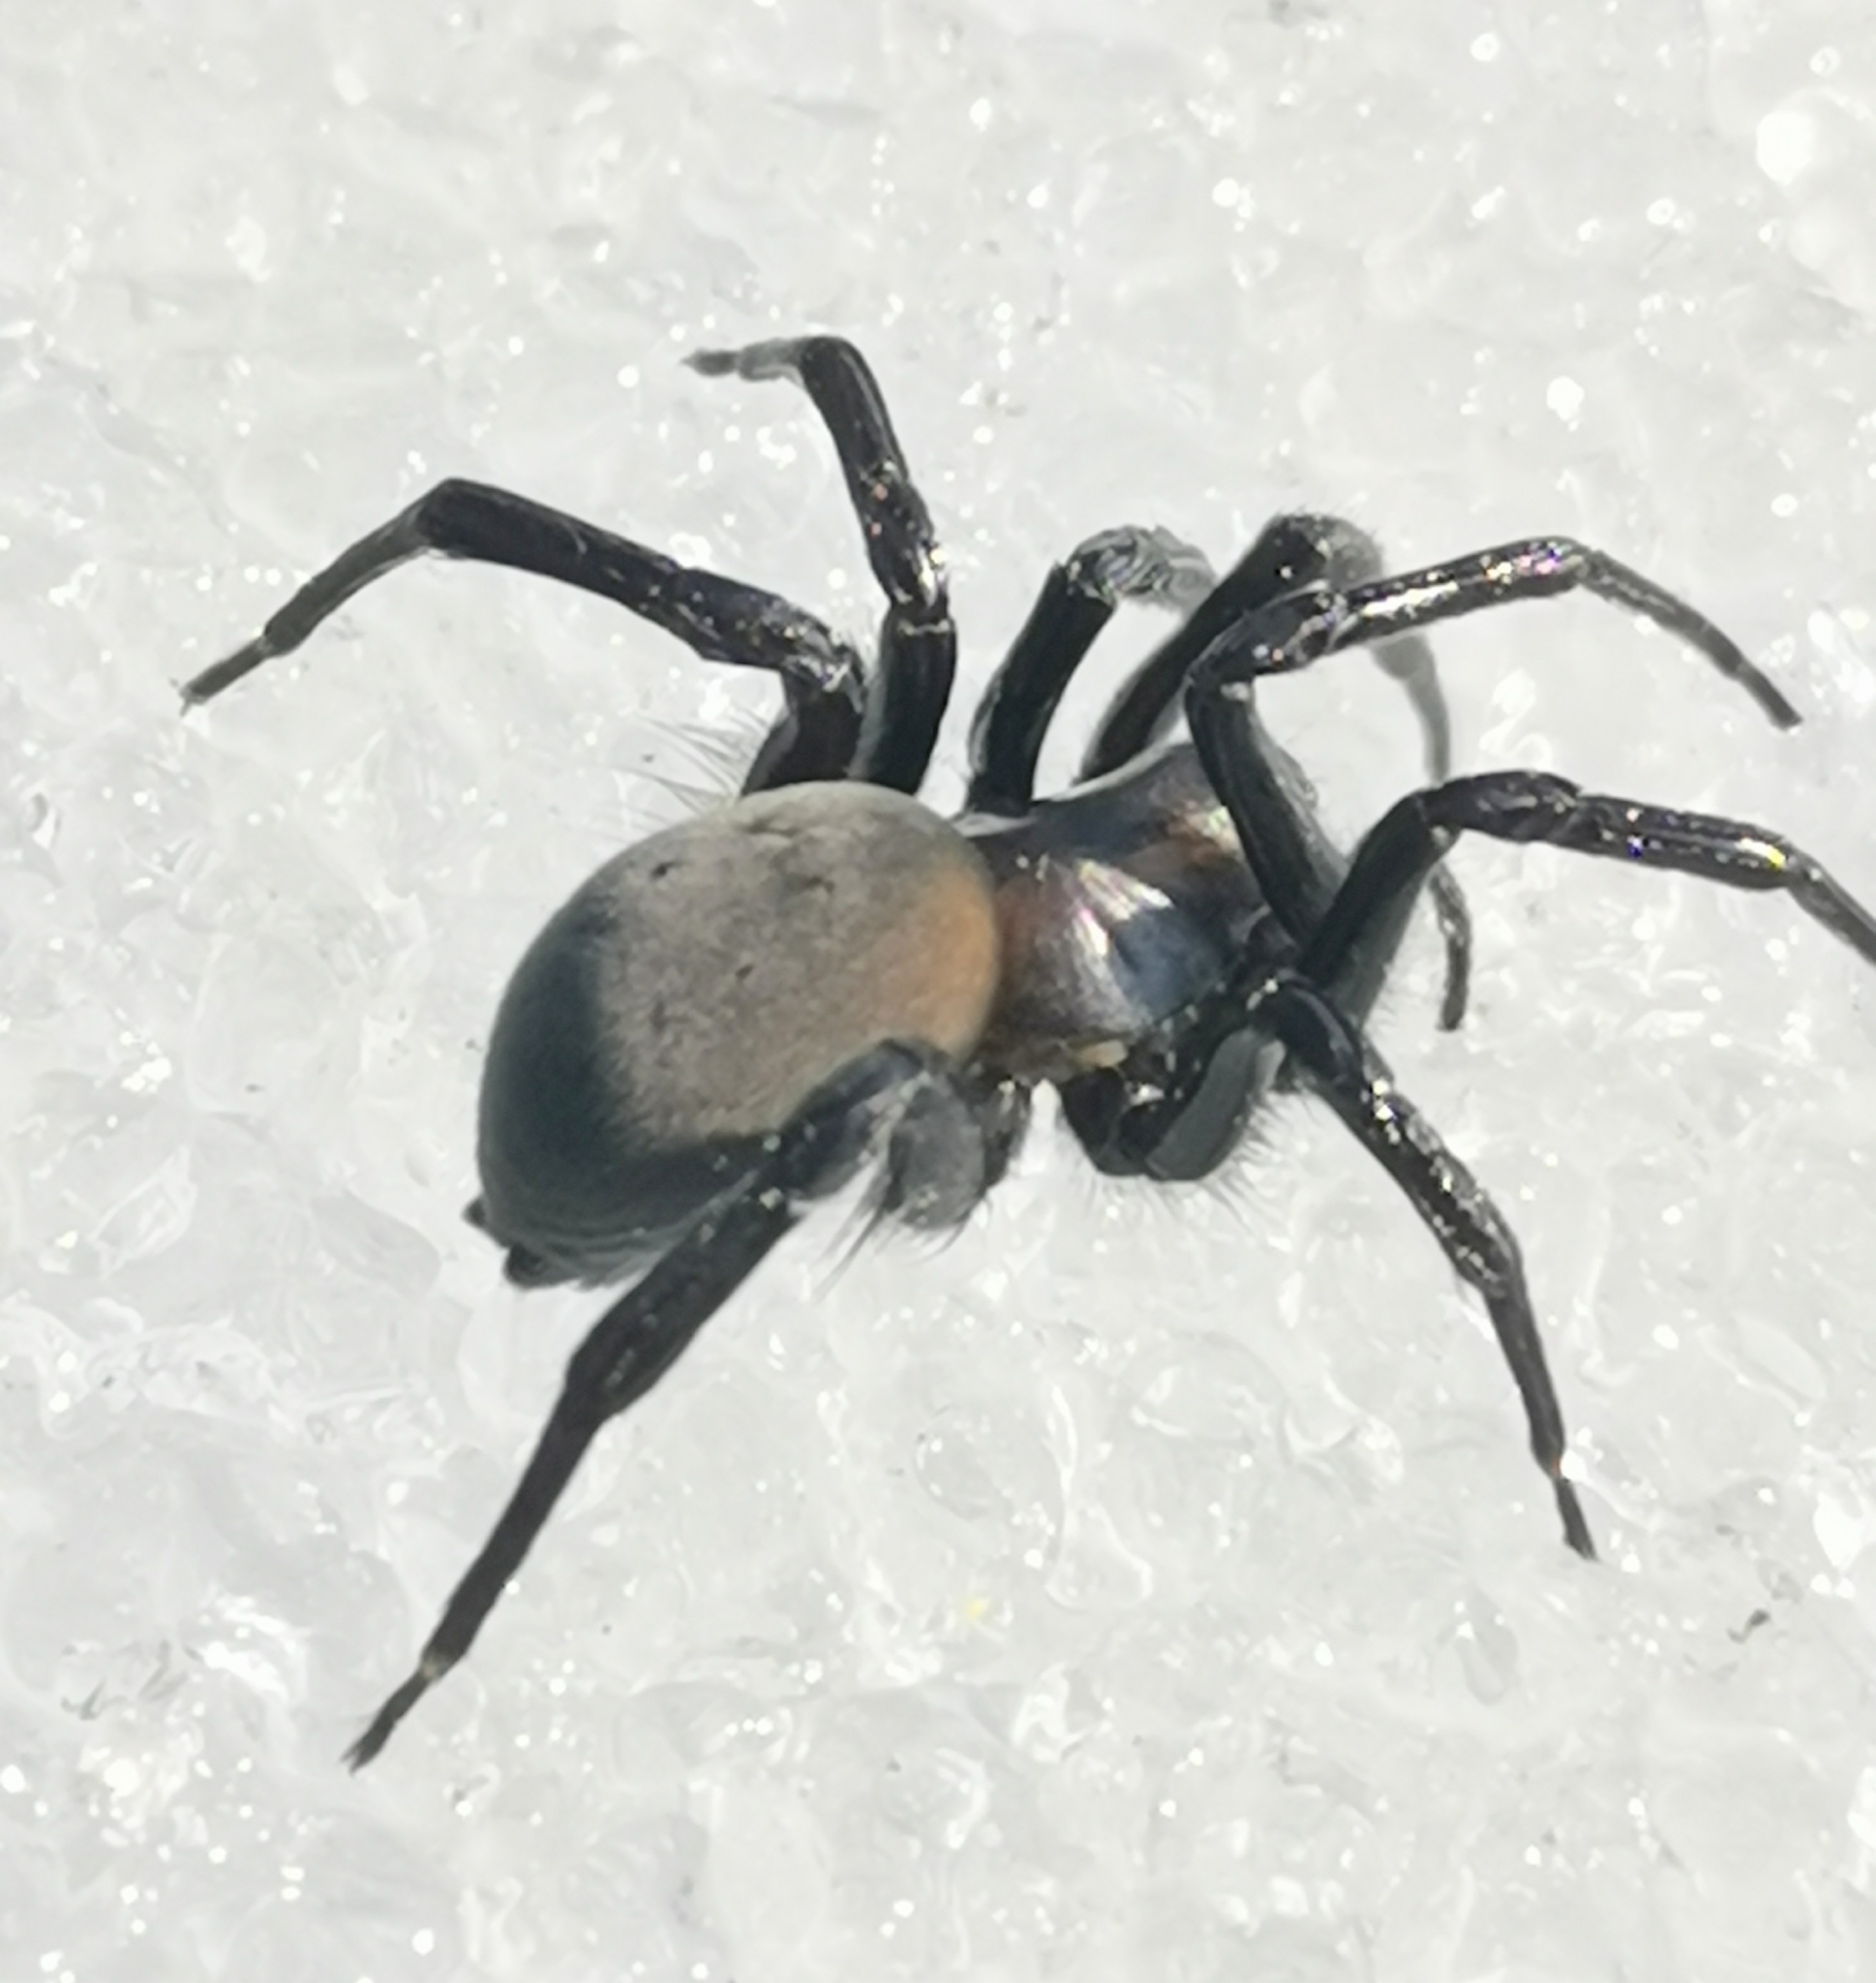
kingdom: Animalia
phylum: Arthropoda
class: Arachnida
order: Araneae
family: Dictynidae
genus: Argyroneta
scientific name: Argyroneta aquatica
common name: Water spider
